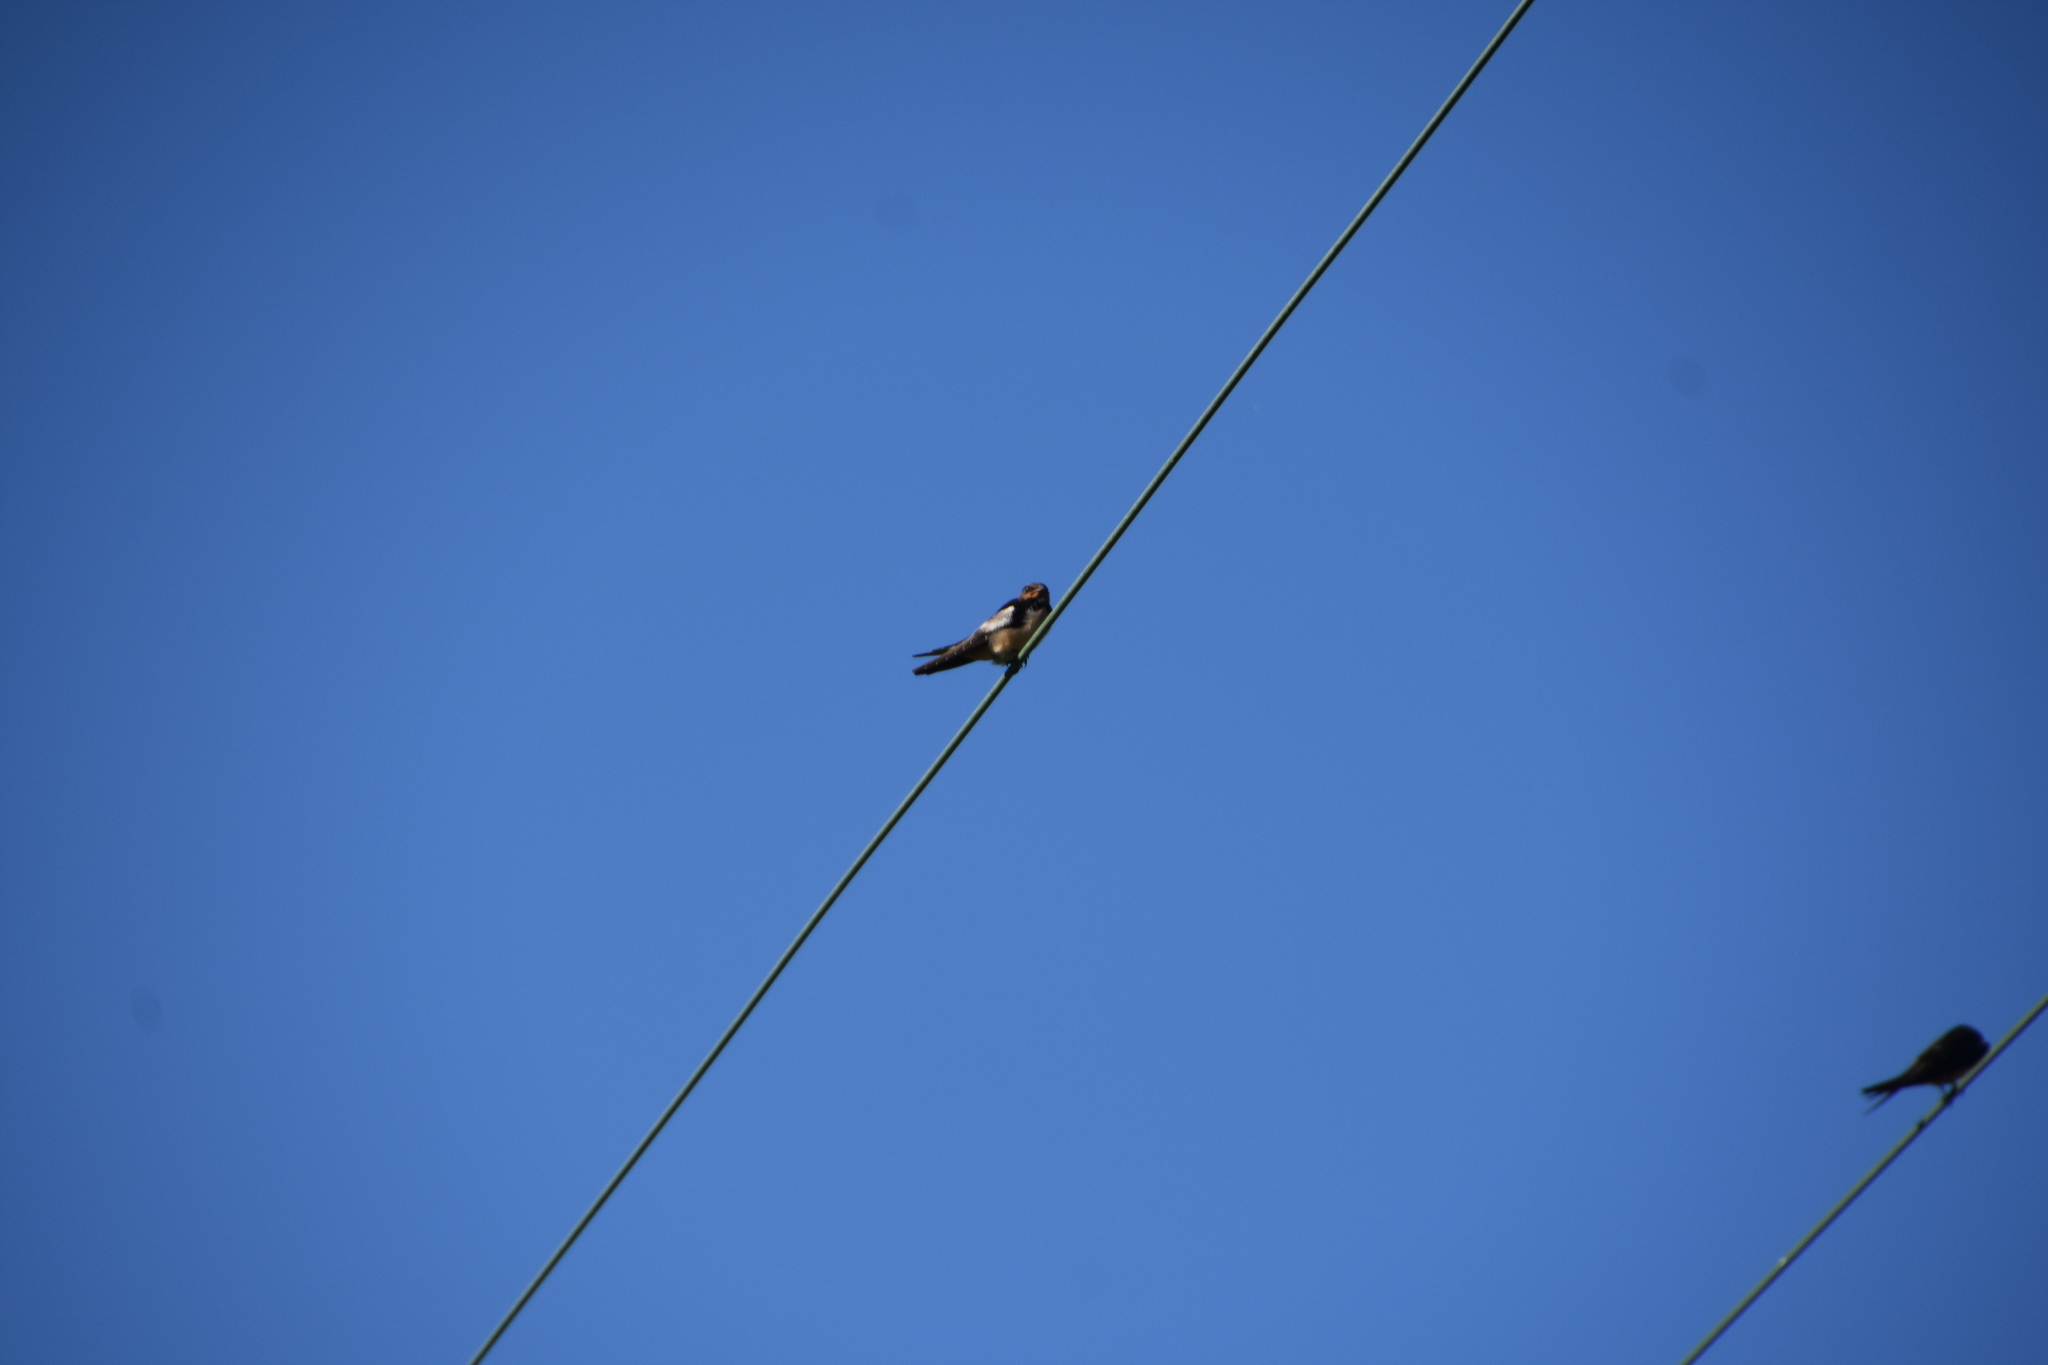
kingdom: Animalia
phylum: Chordata
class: Aves
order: Passeriformes
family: Hirundinidae
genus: Hirundo
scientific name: Hirundo rustica
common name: Barn swallow
